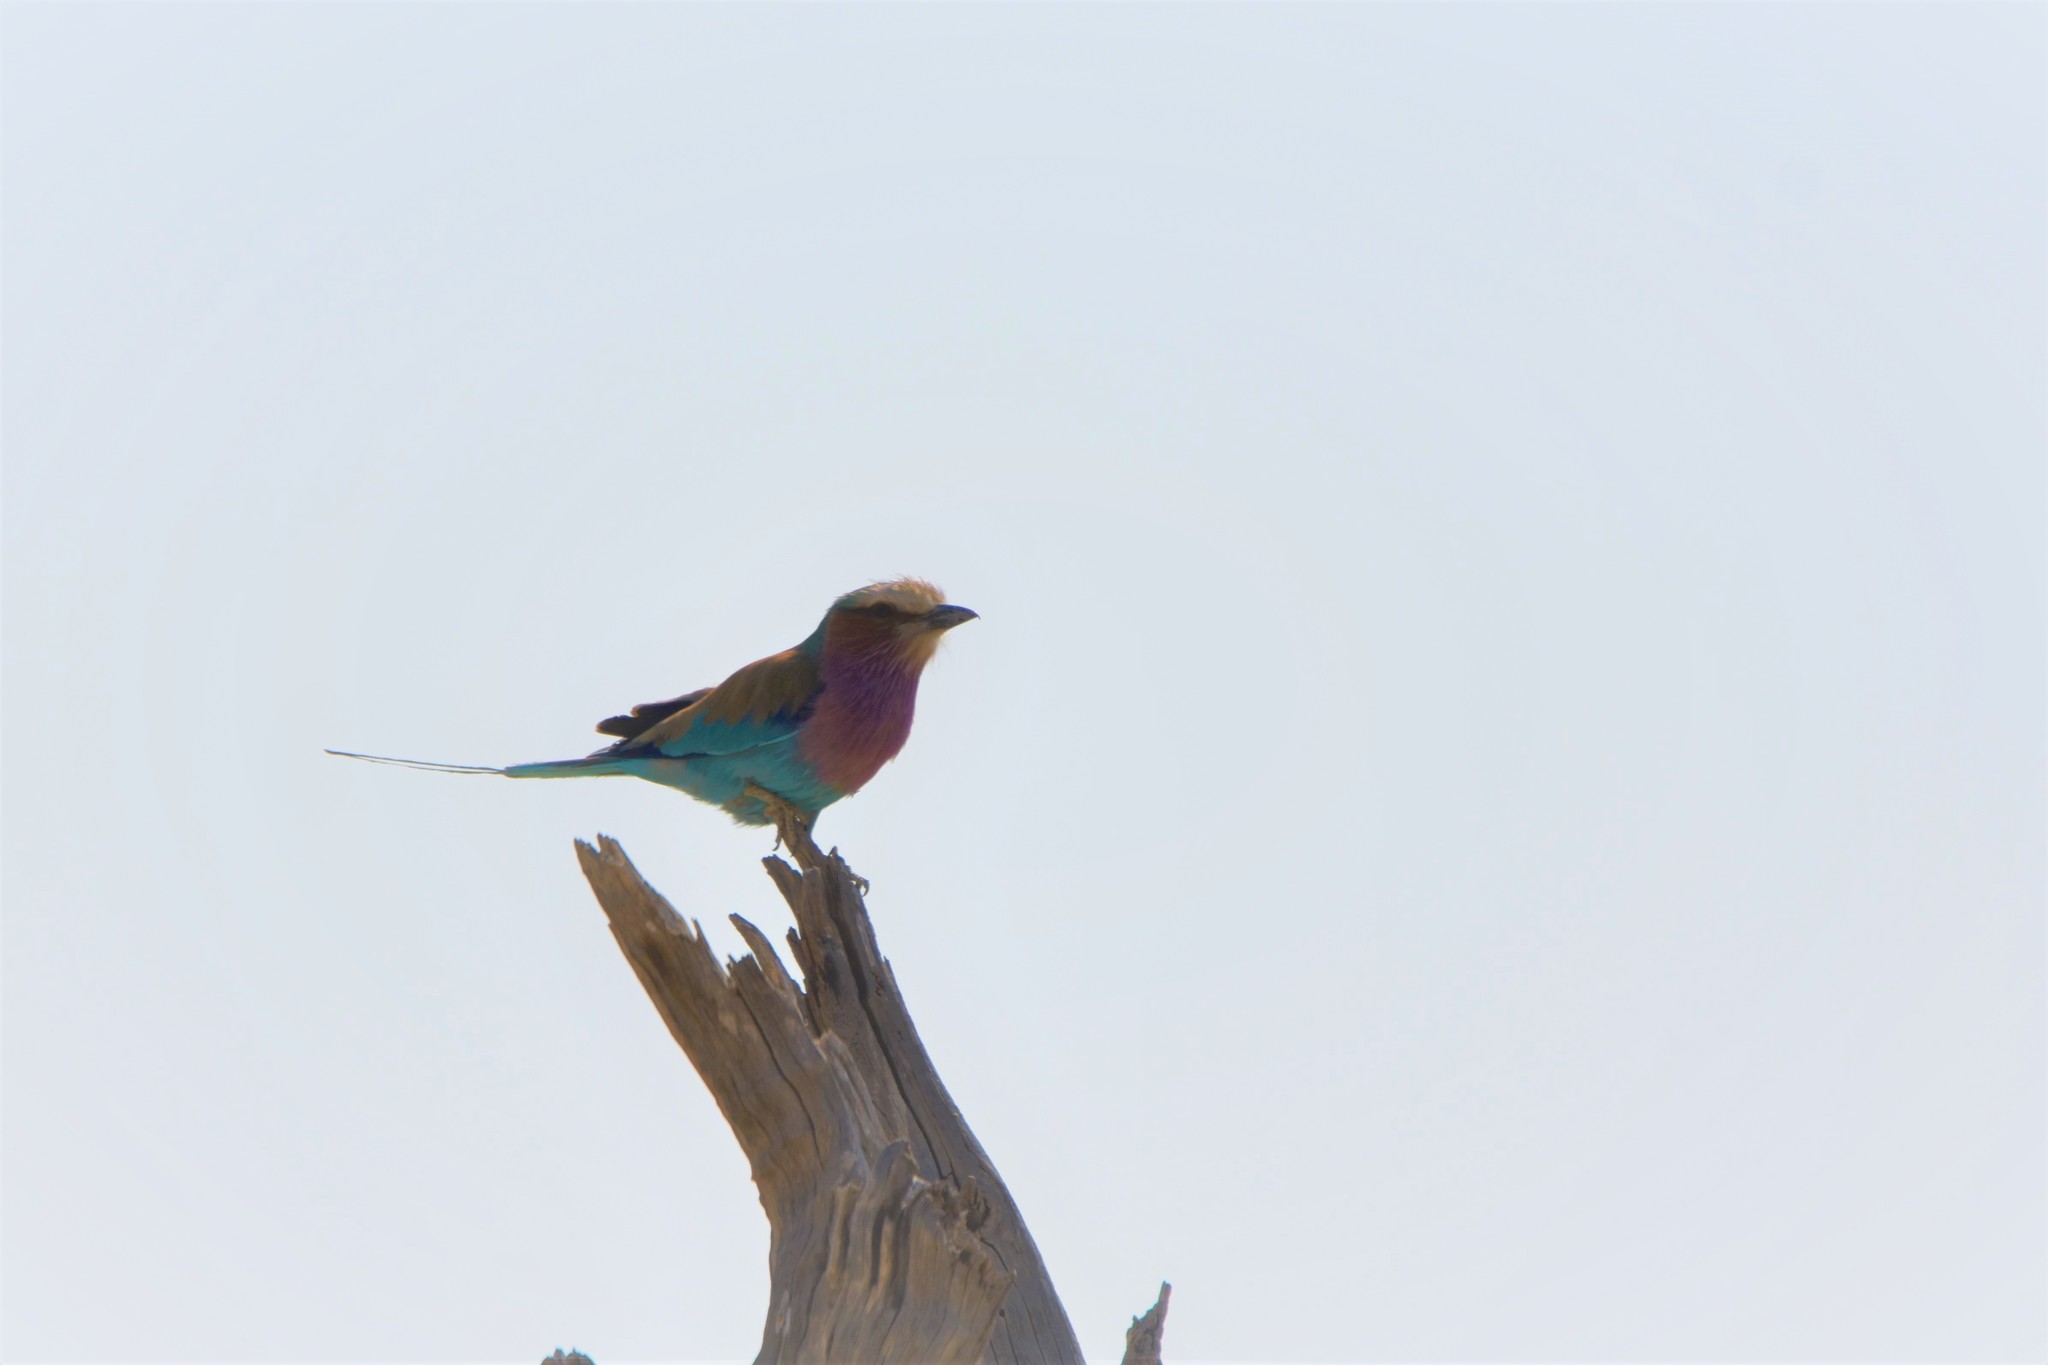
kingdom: Animalia
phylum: Chordata
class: Aves
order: Coraciiformes
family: Coraciidae
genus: Coracias
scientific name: Coracias caudatus
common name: Lilac-breasted roller
